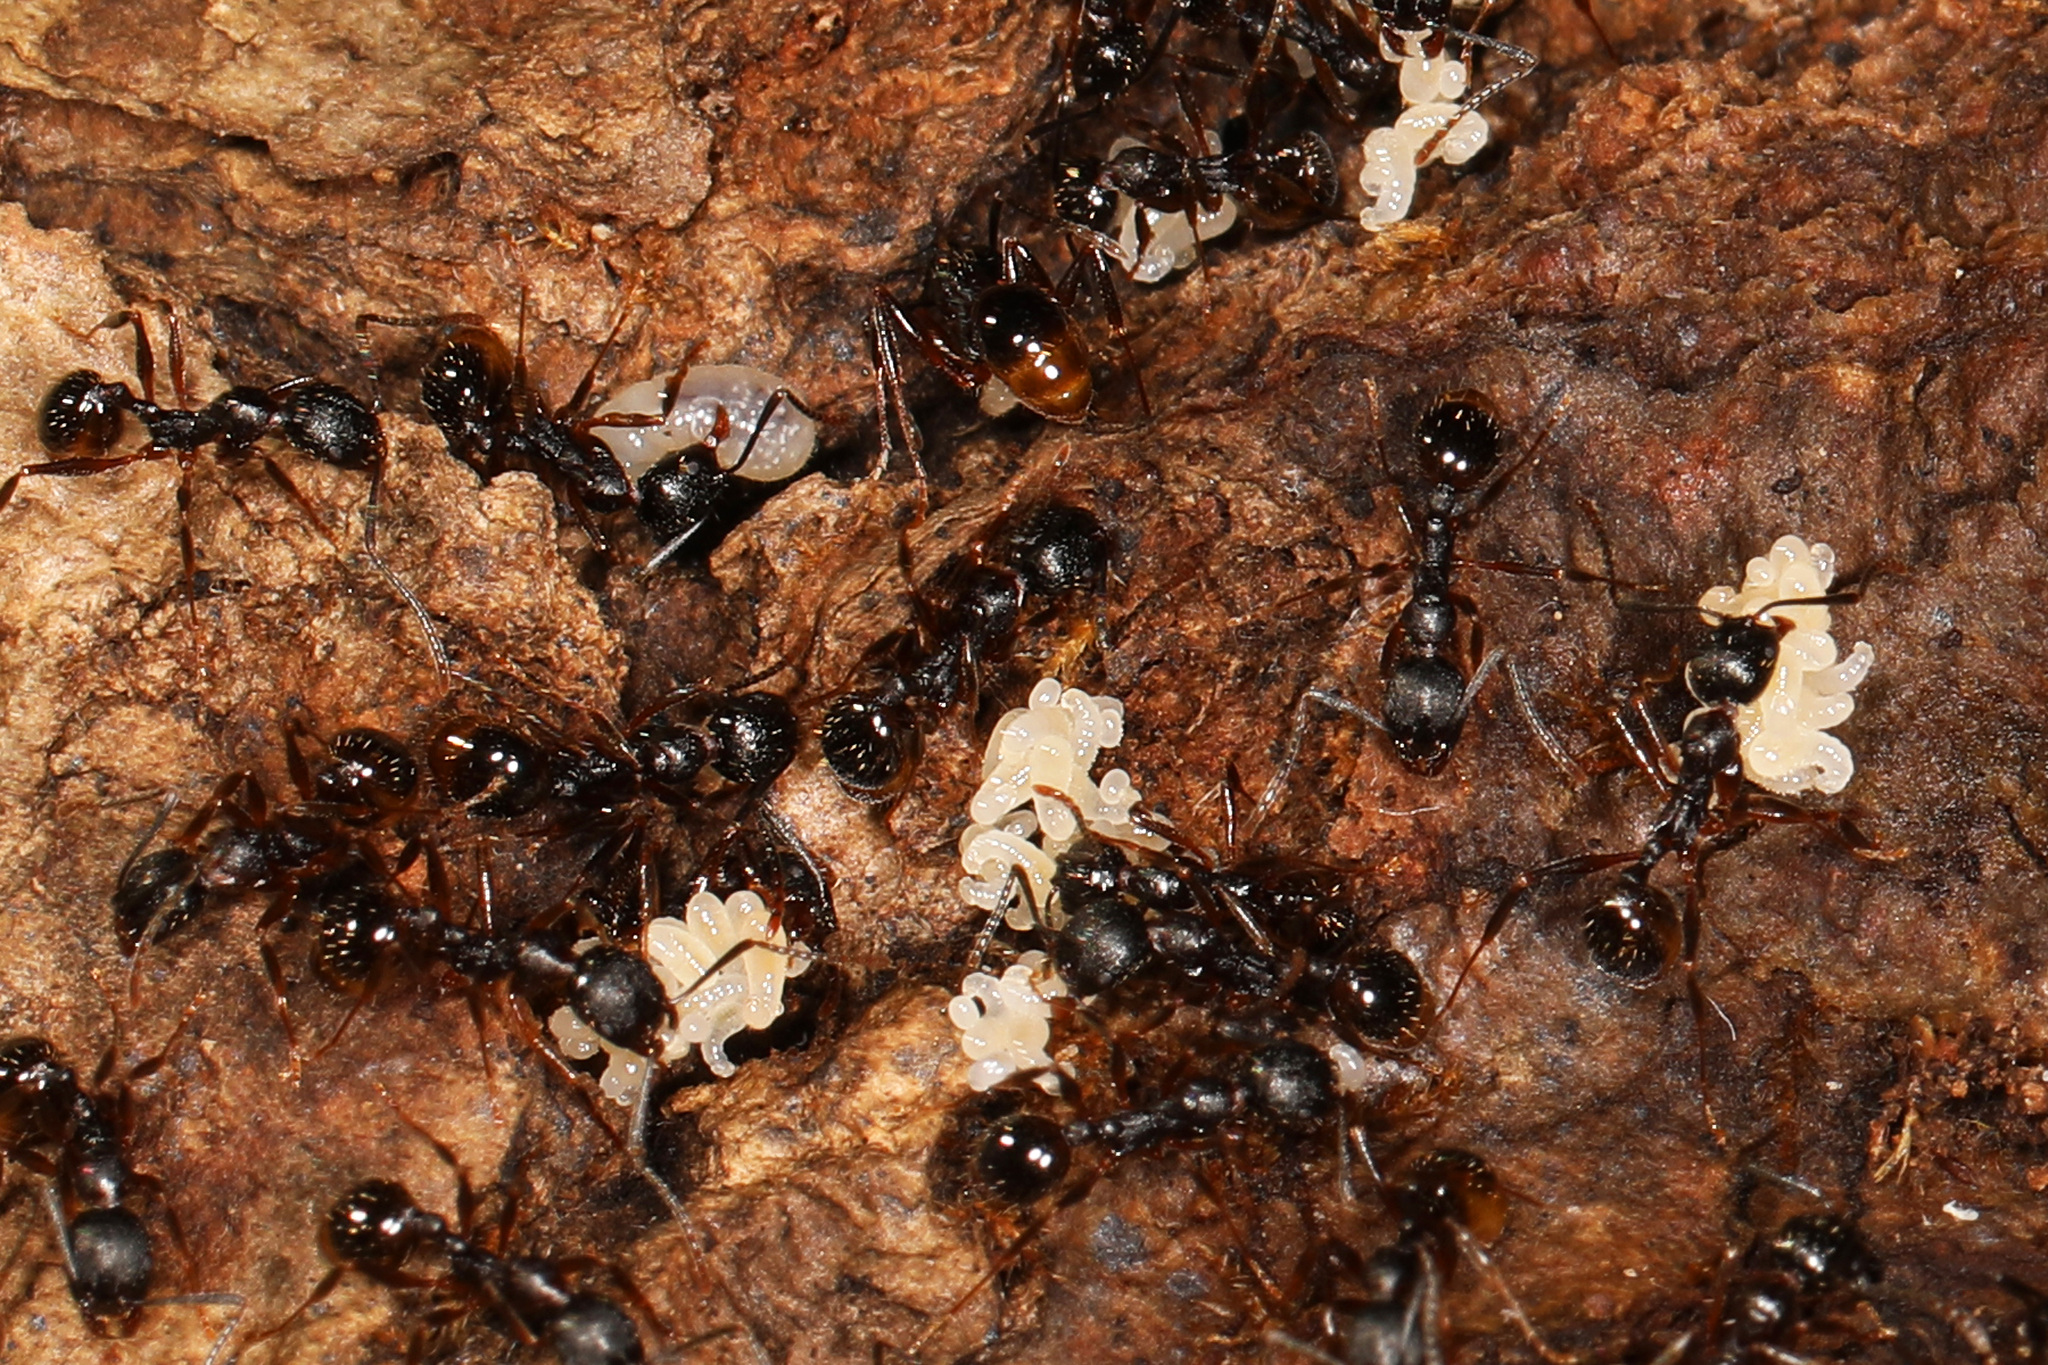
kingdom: Animalia
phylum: Arthropoda
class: Insecta
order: Hymenoptera
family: Formicidae
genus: Aphaenogaster
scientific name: Aphaenogaster picea
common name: Pitch-black collared ant
